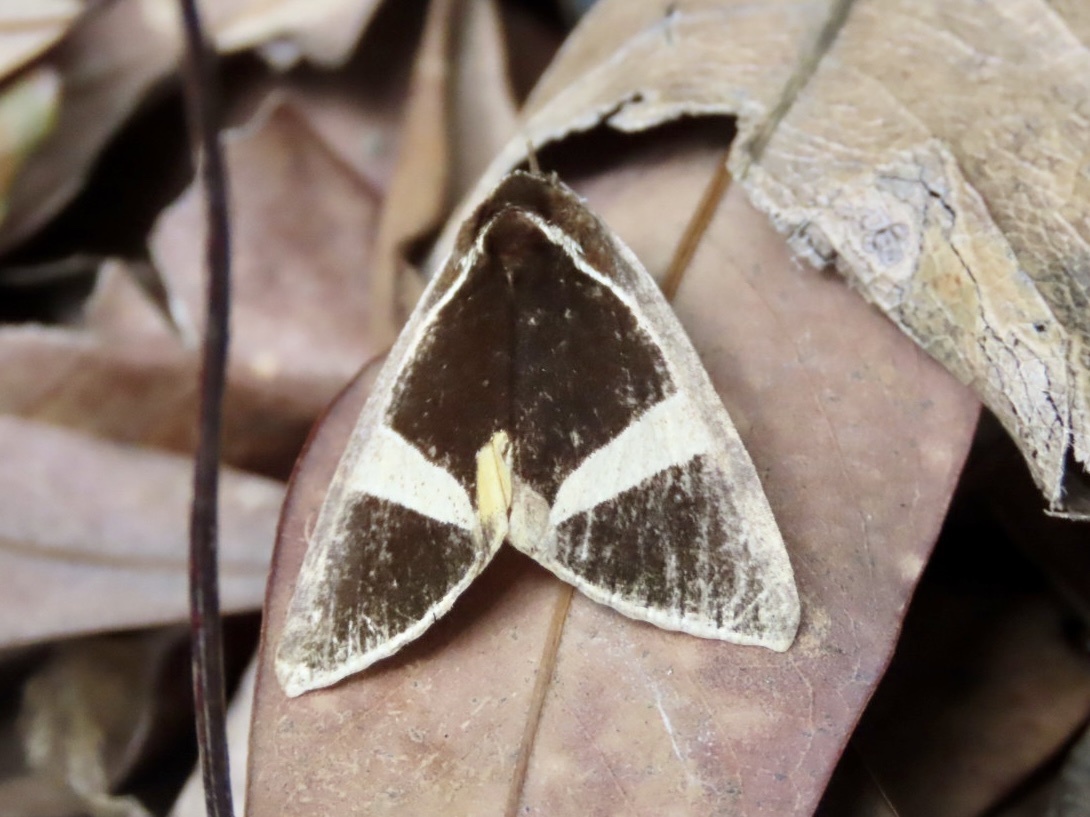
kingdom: Animalia
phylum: Arthropoda
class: Insecta
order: Lepidoptera
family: Erebidae
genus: Fodina
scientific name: Fodina kosemponis
